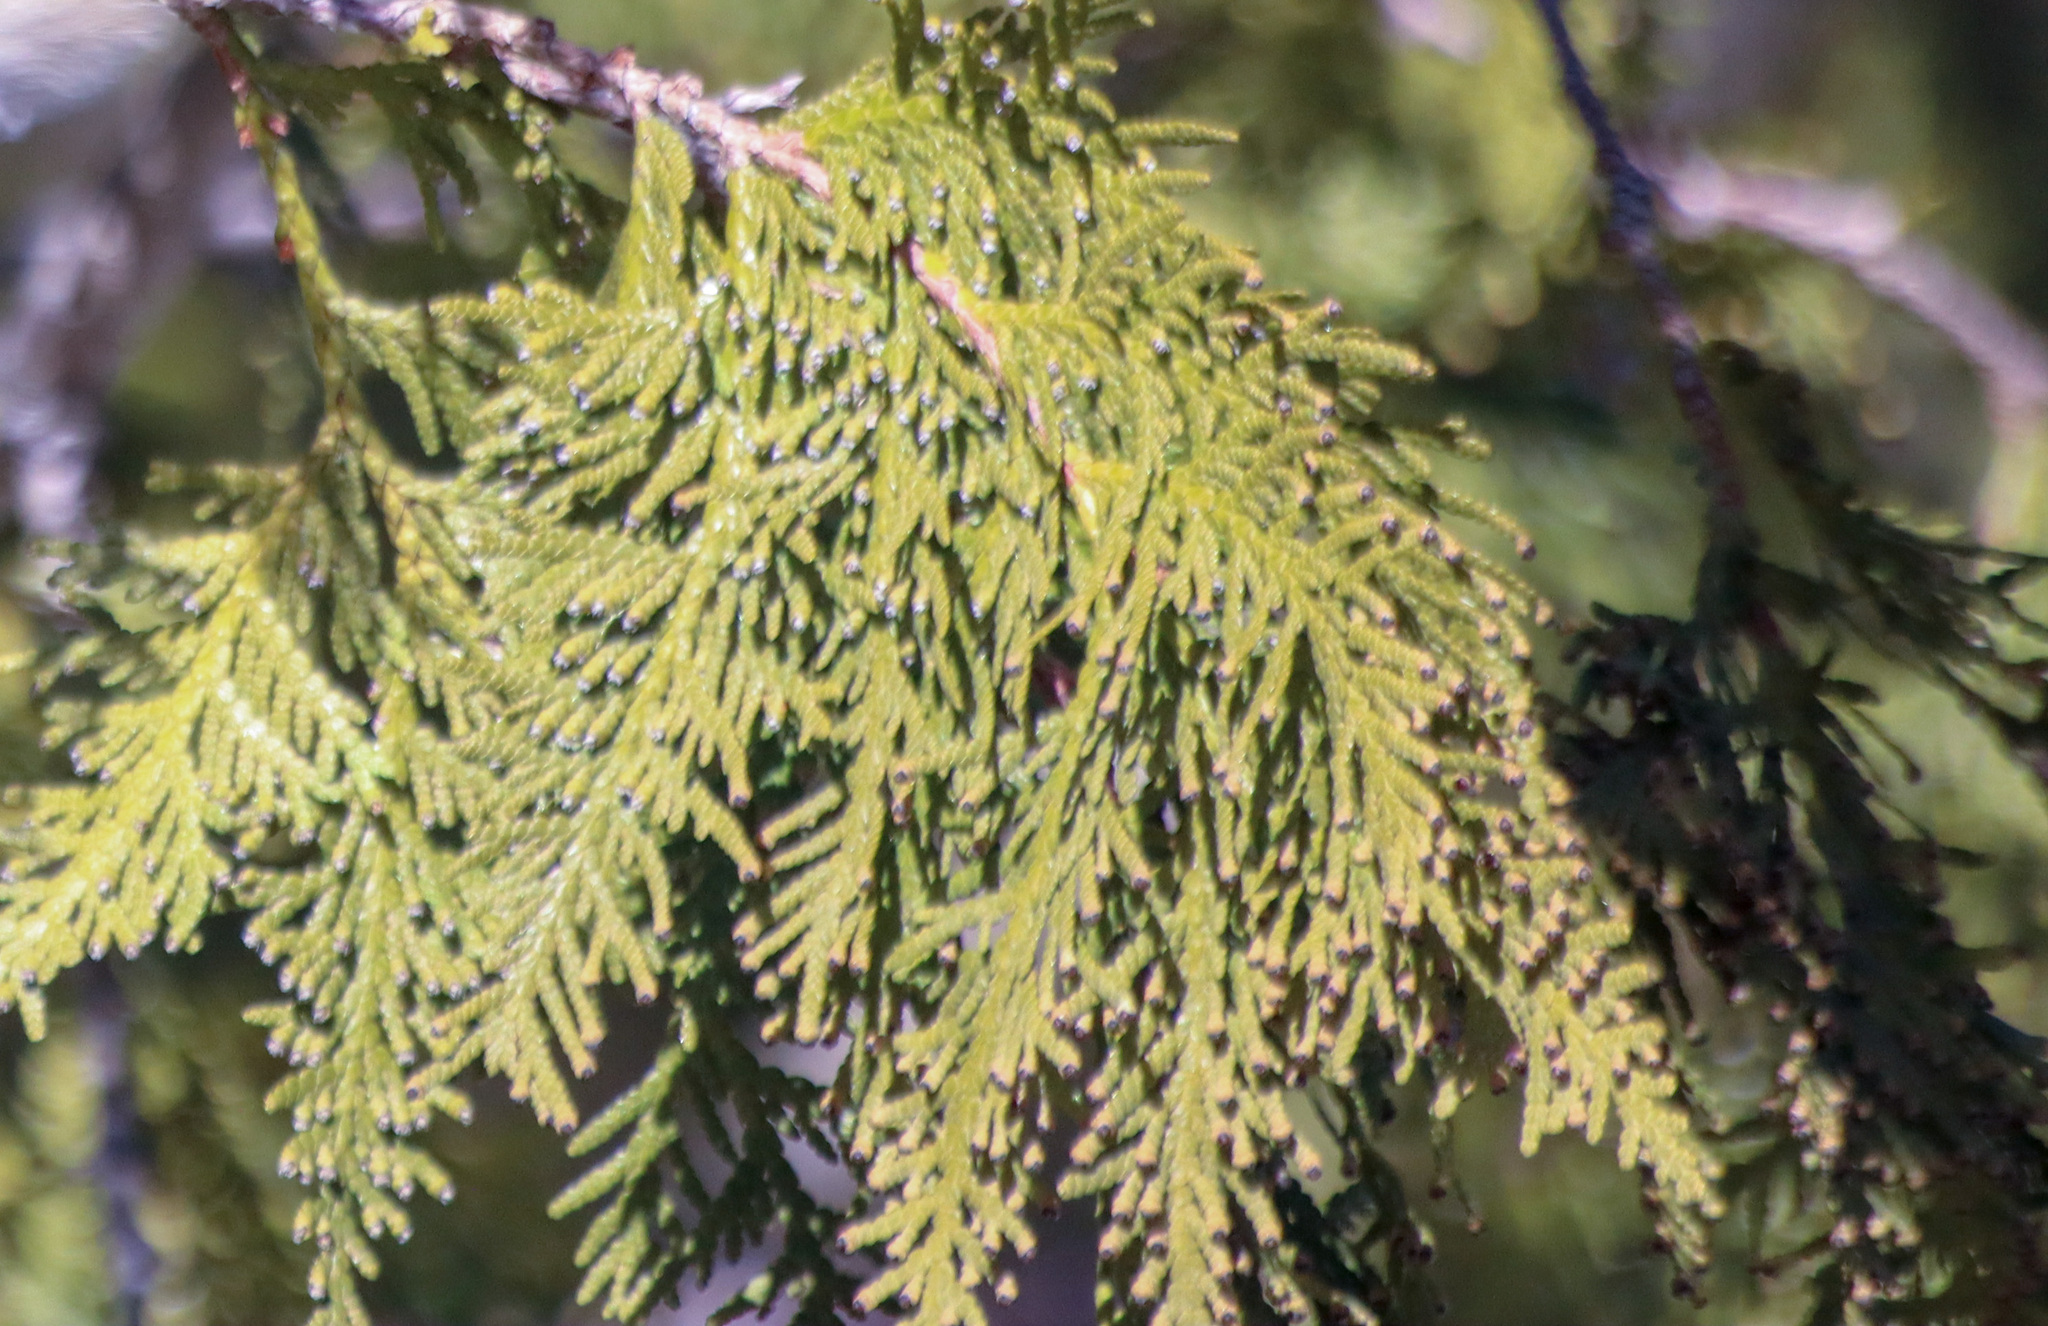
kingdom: Plantae
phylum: Tracheophyta
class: Pinopsida
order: Pinales
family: Cupressaceae
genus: Thuja
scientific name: Thuja occidentalis
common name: Northern white-cedar
